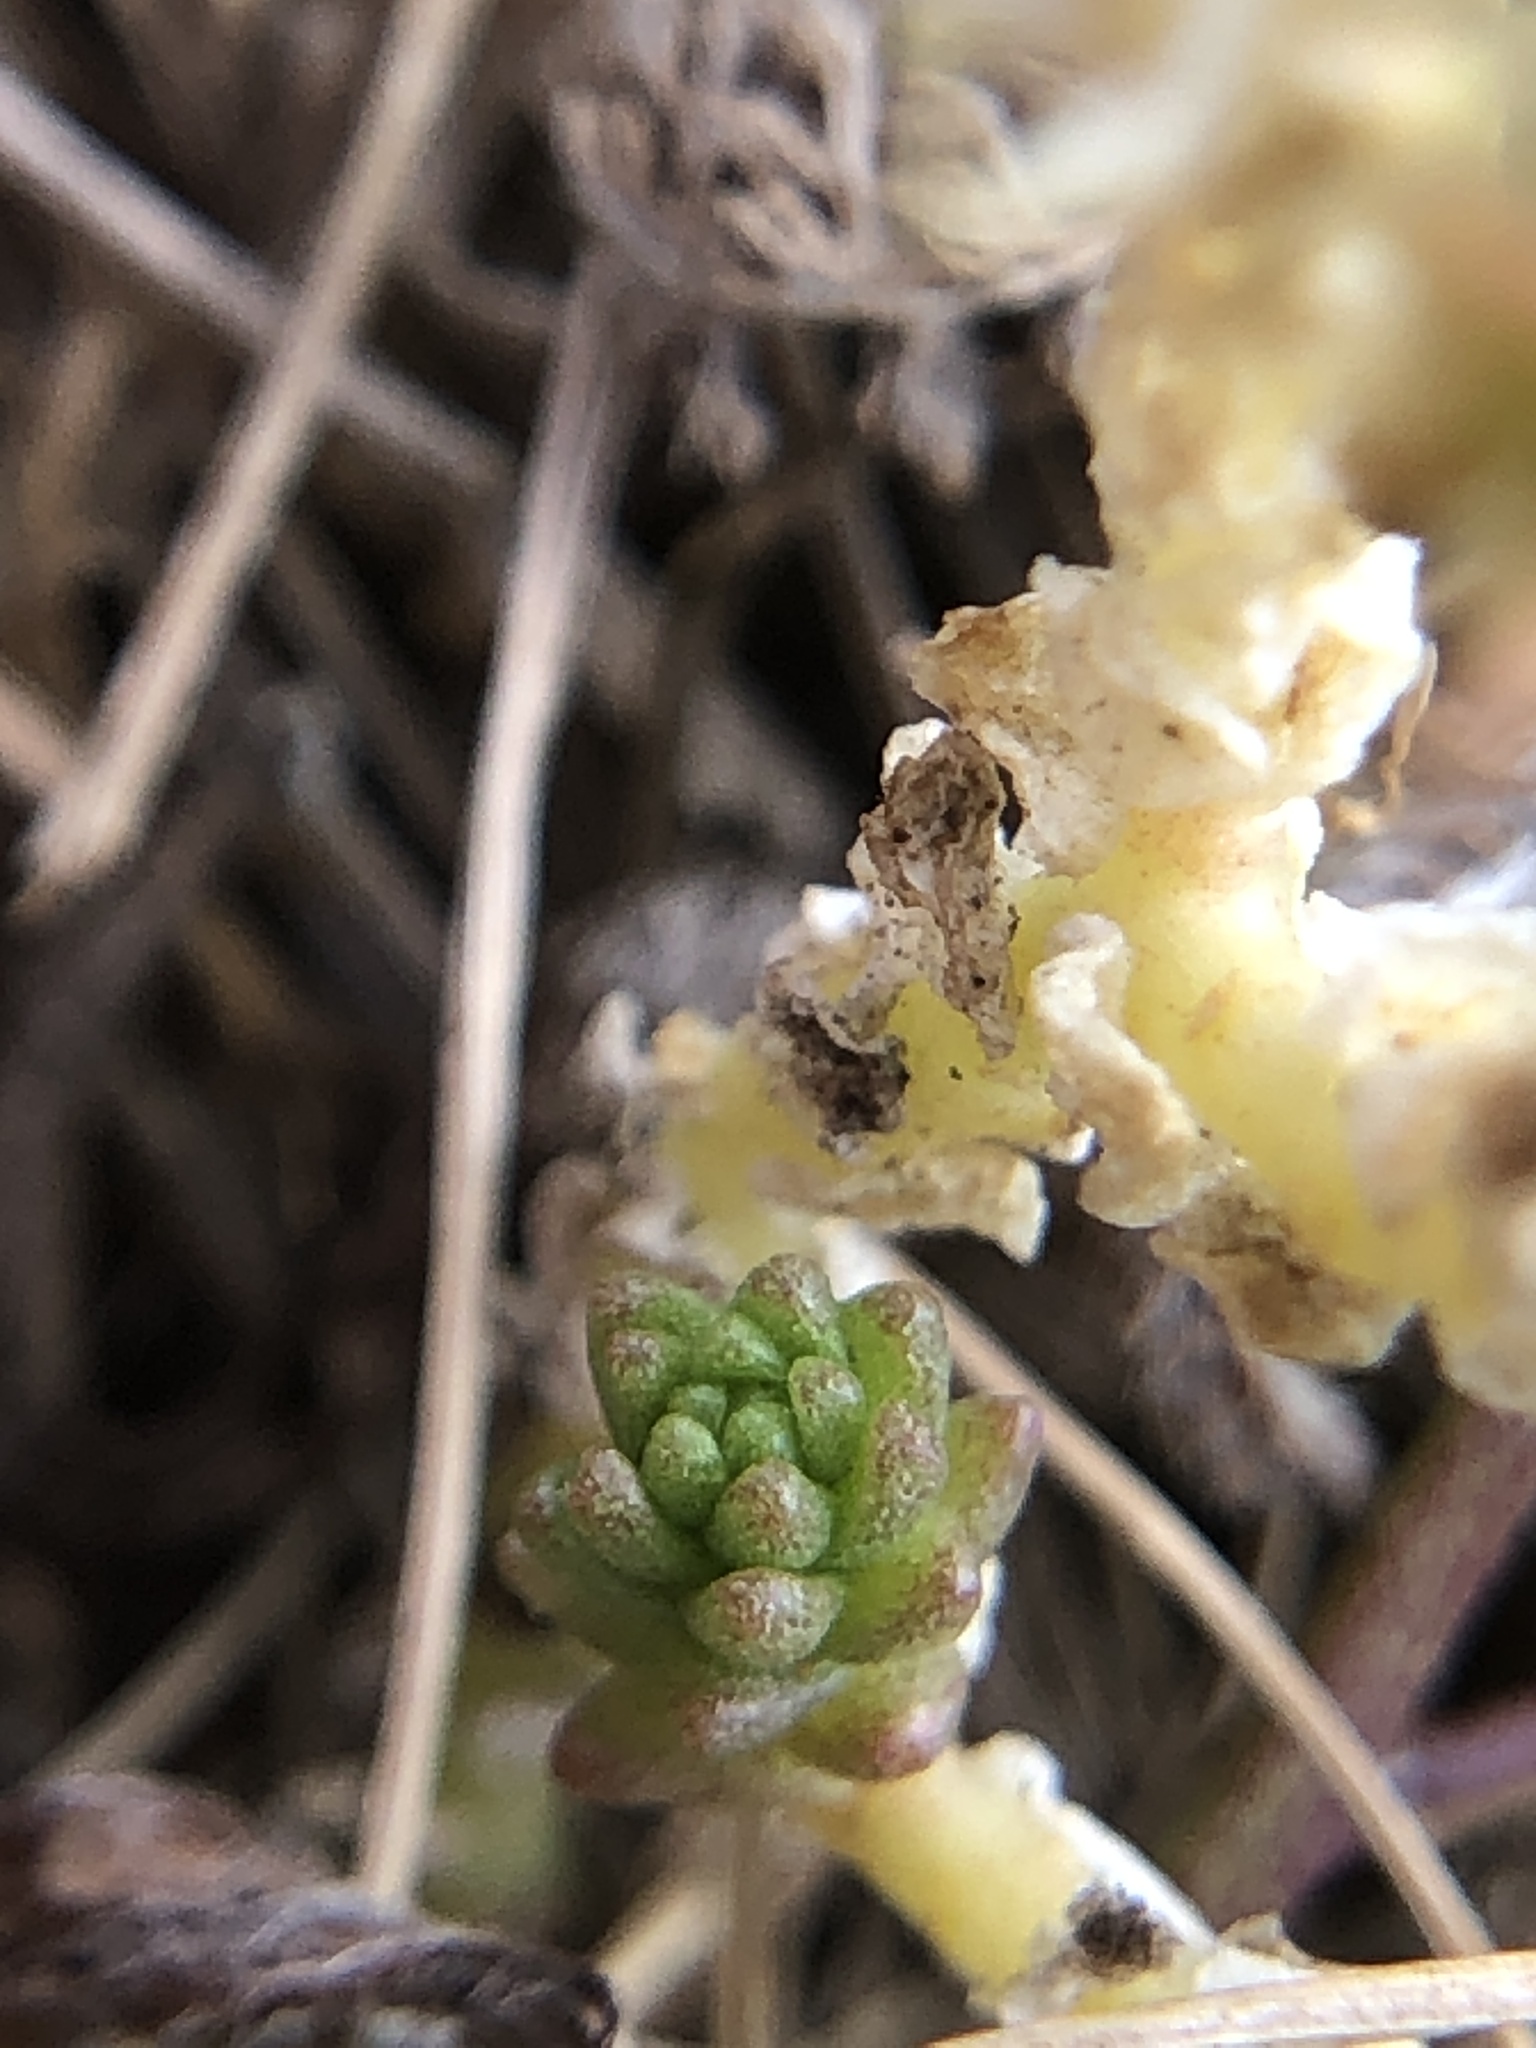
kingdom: Plantae
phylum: Tracheophyta
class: Magnoliopsida
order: Saxifragales
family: Crassulaceae
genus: Sedum
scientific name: Sedum acre
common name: Biting stonecrop
